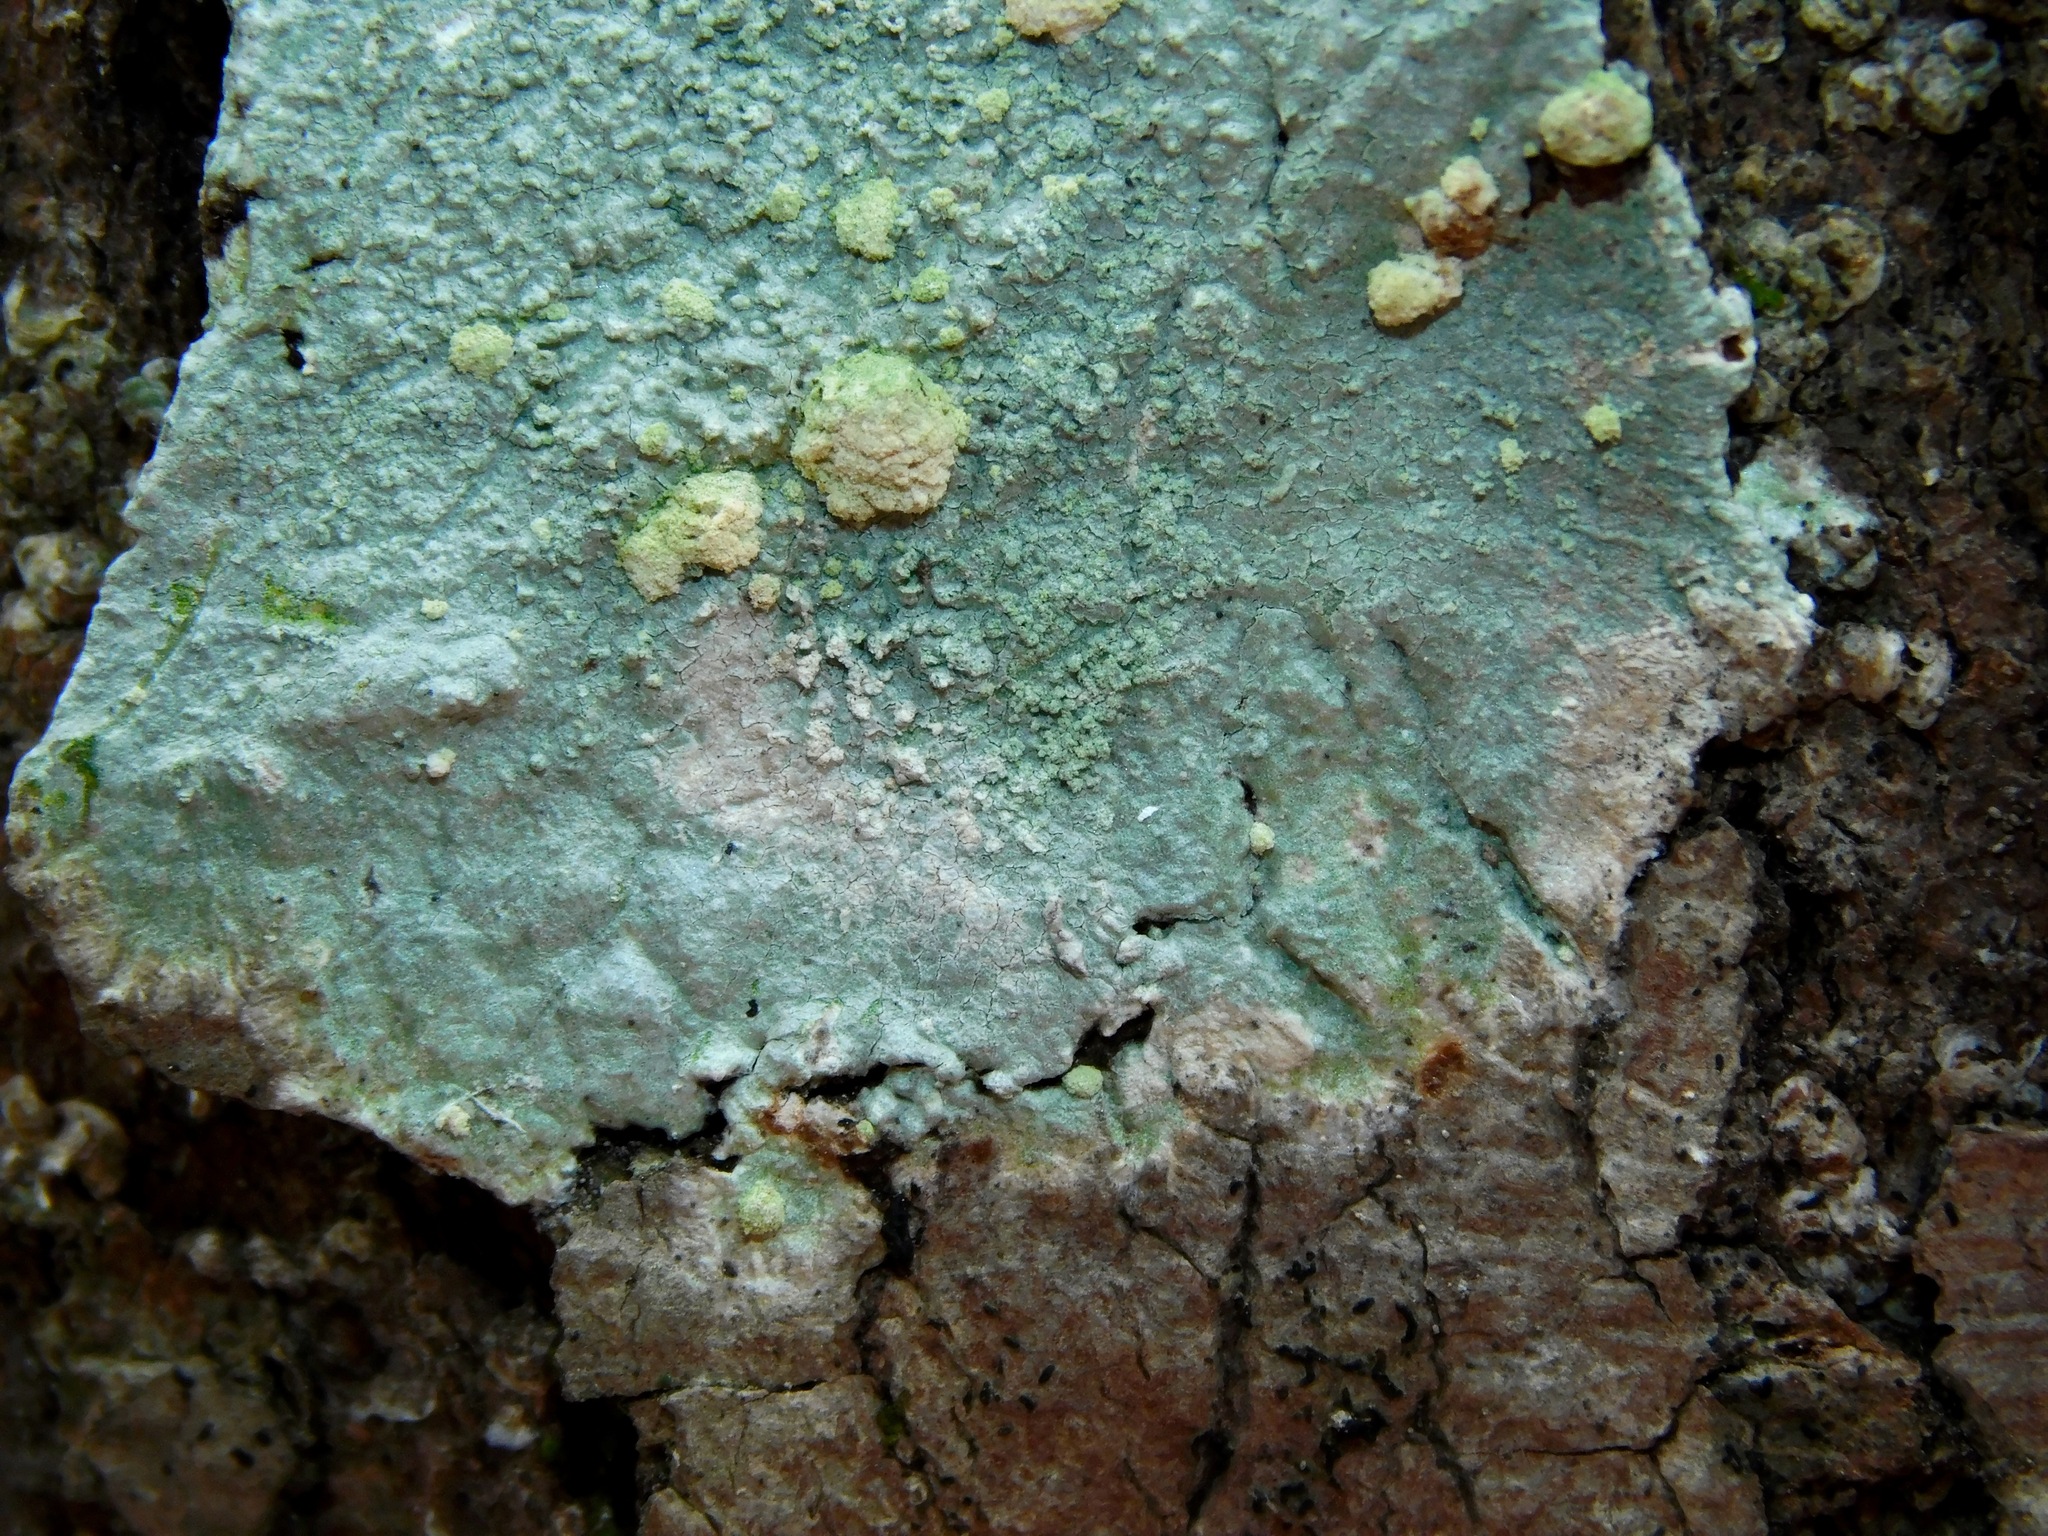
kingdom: Fungi
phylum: Ascomycota
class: Lecanoromycetes
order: Ostropales
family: Phlyctidaceae
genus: Phlyctis
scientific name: Phlyctis boliviensis
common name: Bark whitewash
